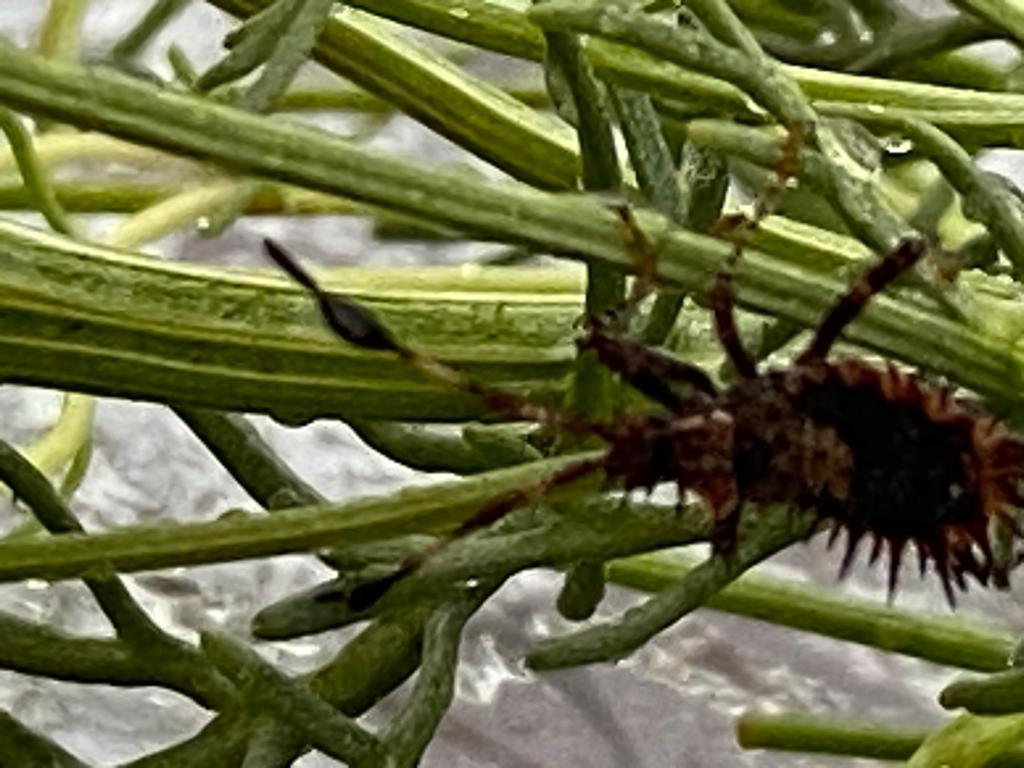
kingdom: Animalia
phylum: Arthropoda
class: Insecta
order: Hemiptera
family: Coreidae
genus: Euthochtha
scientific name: Euthochtha galeator
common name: Helmeted squash bug
